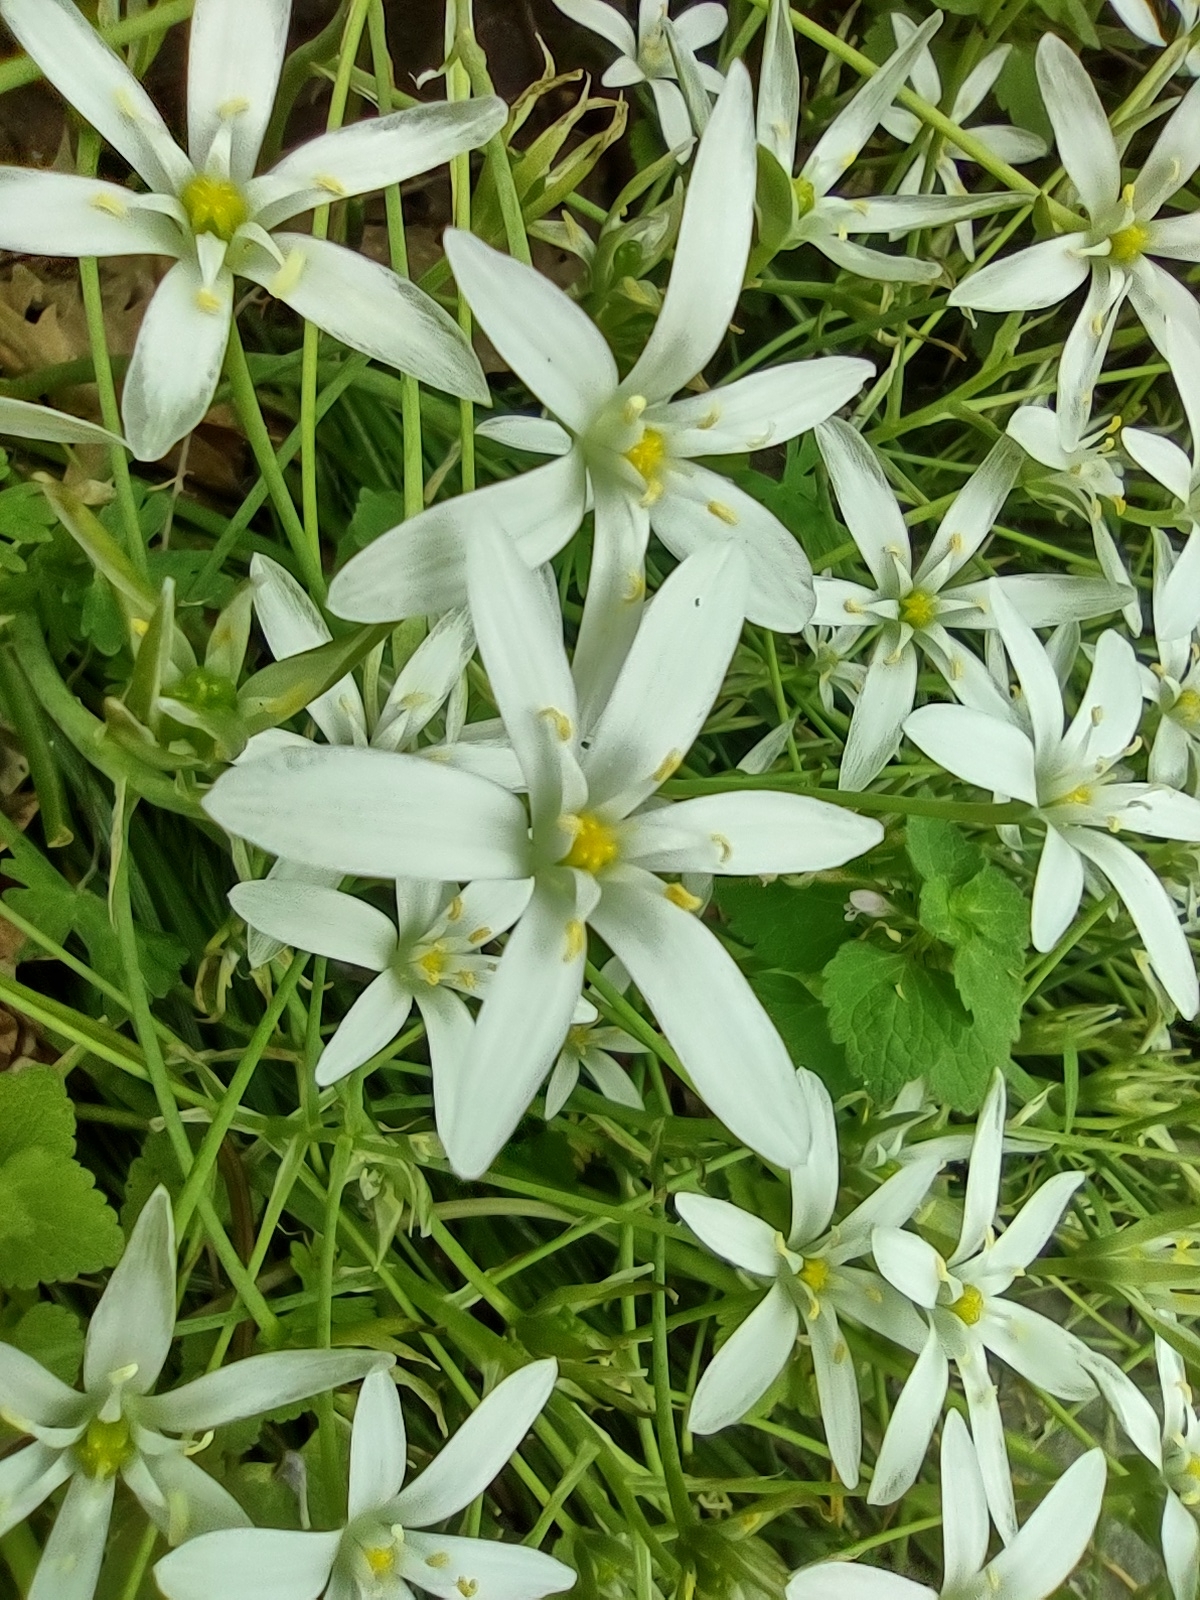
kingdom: Plantae
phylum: Tracheophyta
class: Liliopsida
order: Asparagales
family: Asparagaceae
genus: Ornithogalum
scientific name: Ornithogalum umbellatum
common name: Garden star-of-bethlehem
